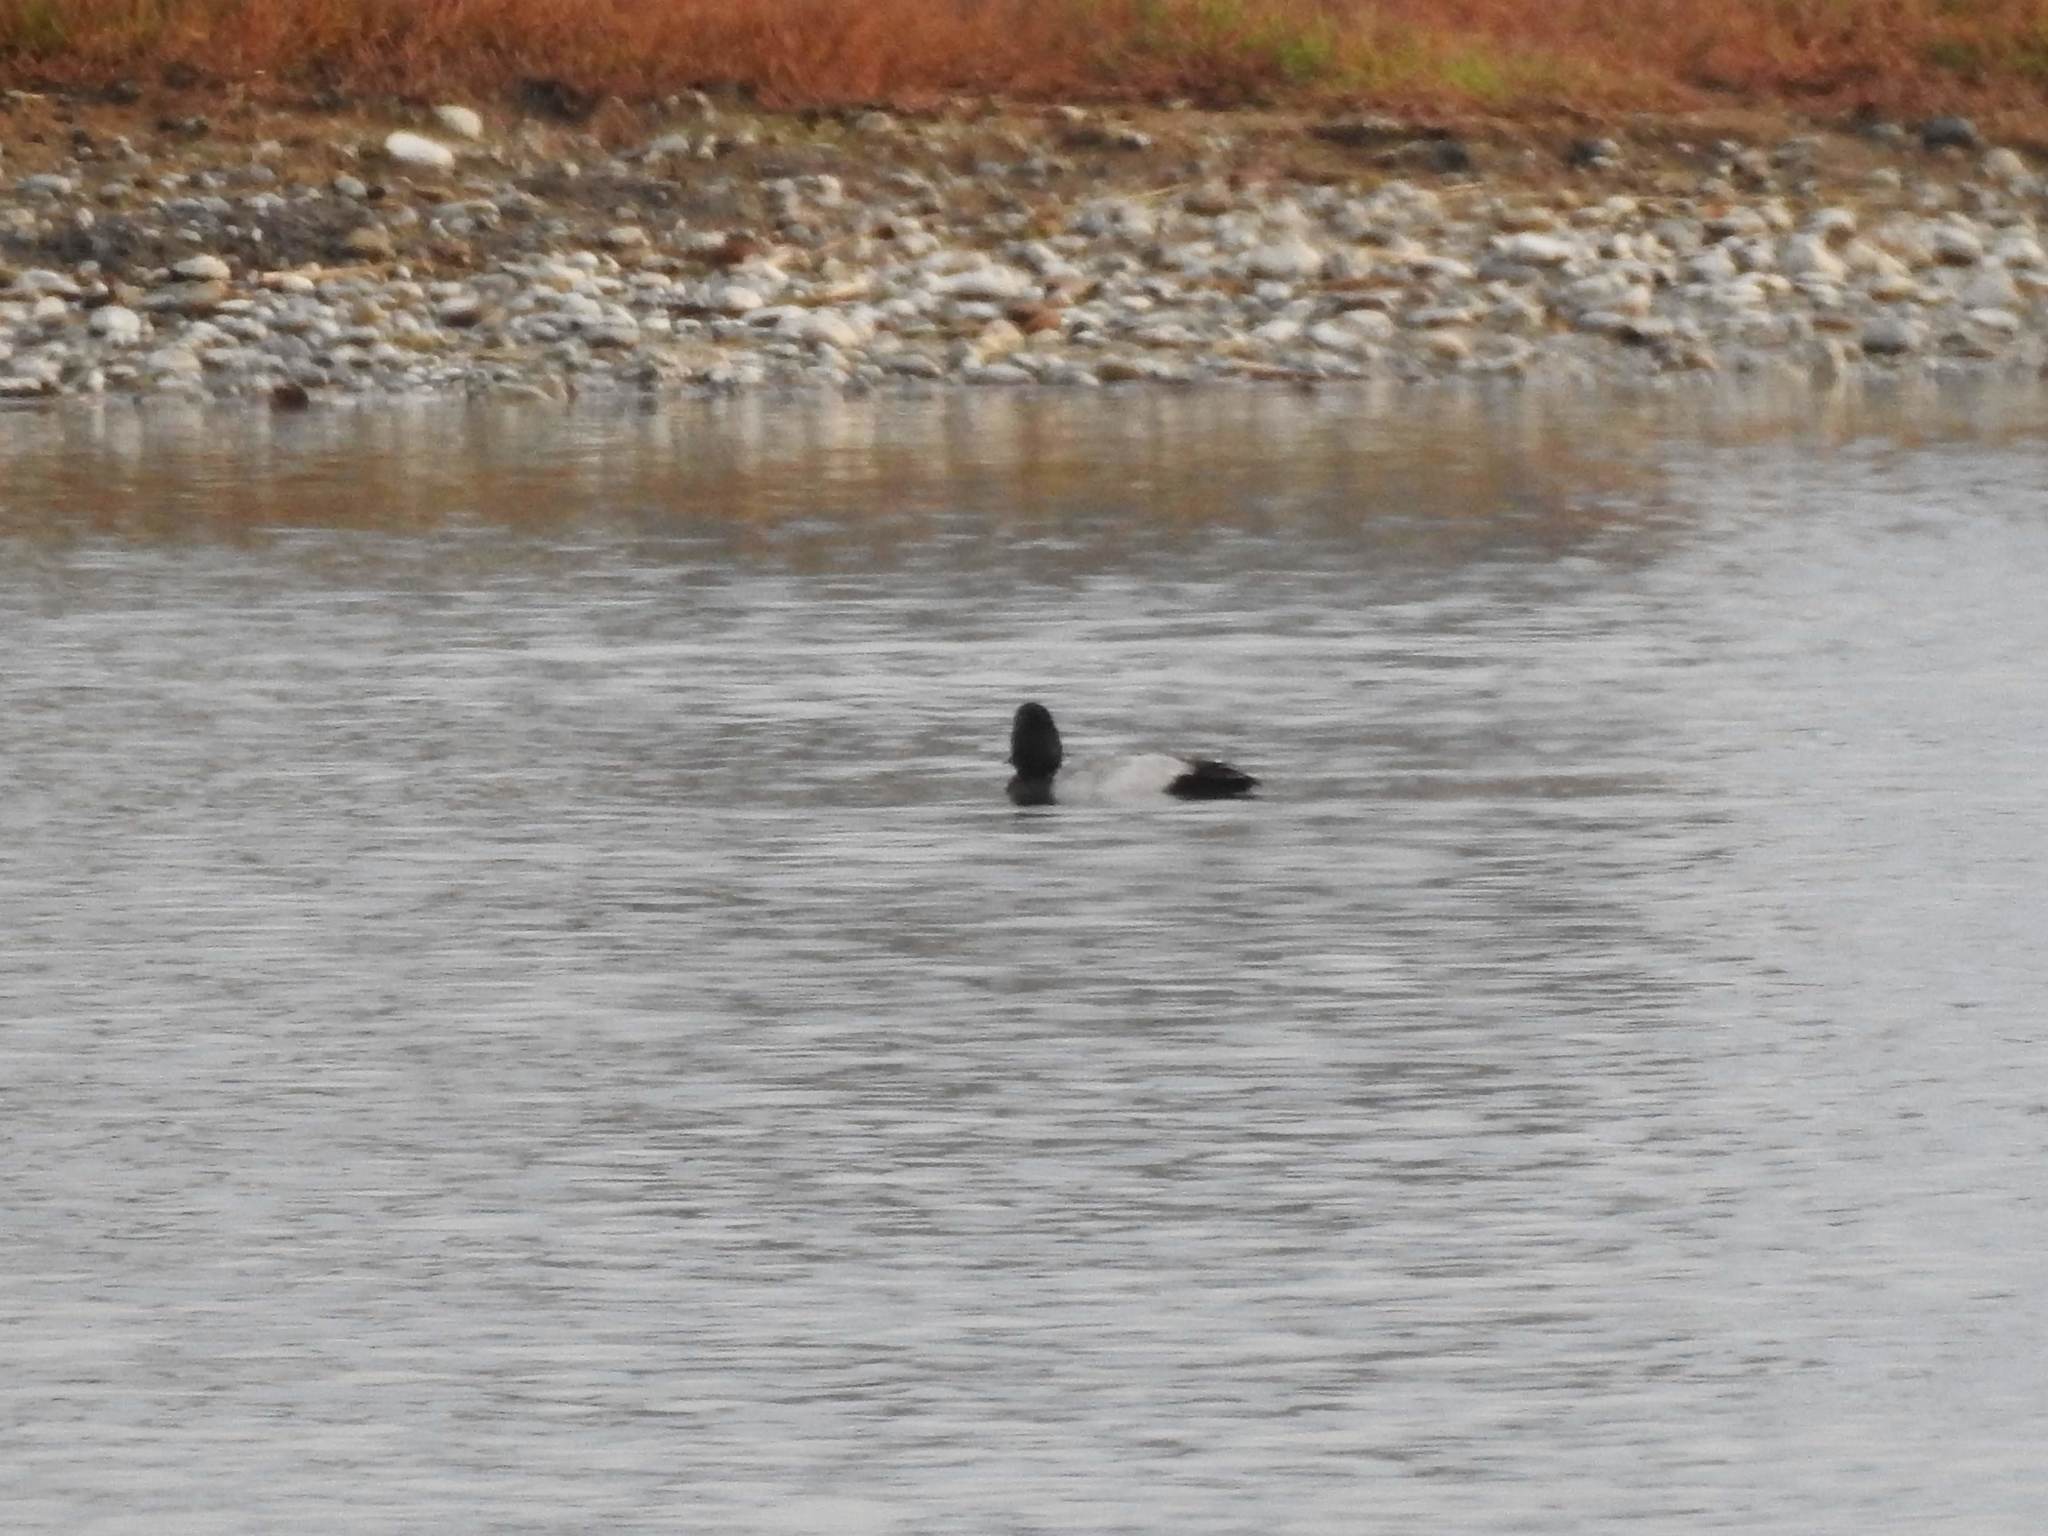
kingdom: Animalia
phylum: Chordata
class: Aves
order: Anseriformes
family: Anatidae
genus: Aythya
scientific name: Aythya marila
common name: Greater scaup
